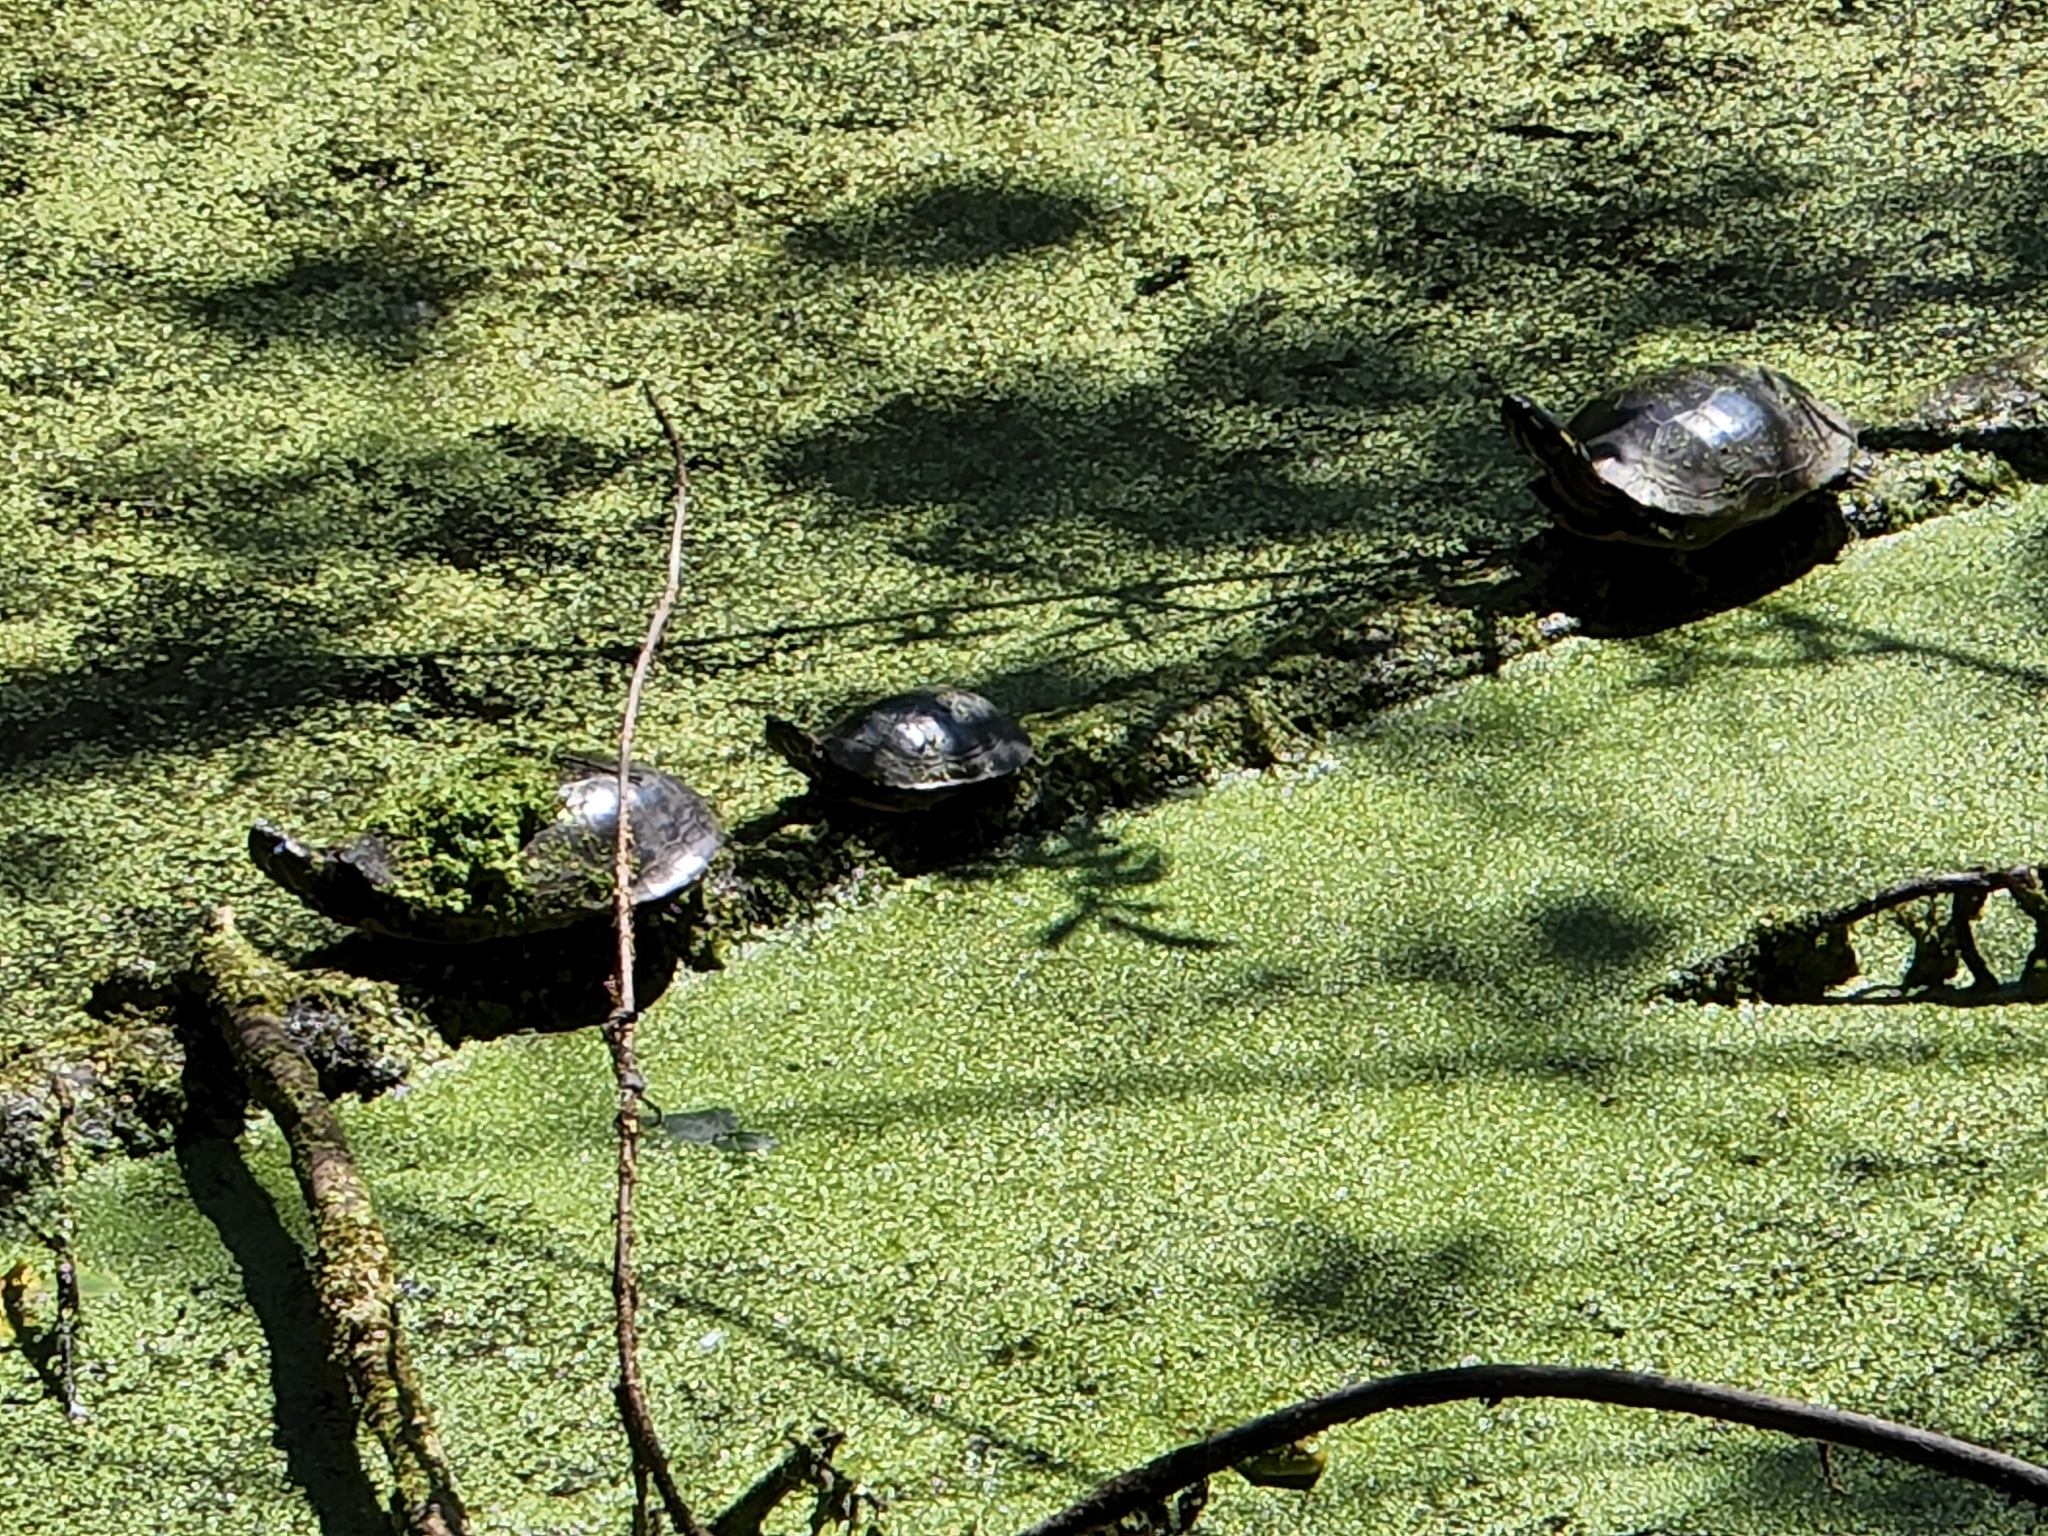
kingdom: Animalia
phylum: Chordata
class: Testudines
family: Emydidae
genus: Chrysemys
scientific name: Chrysemys picta
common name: Painted turtle
